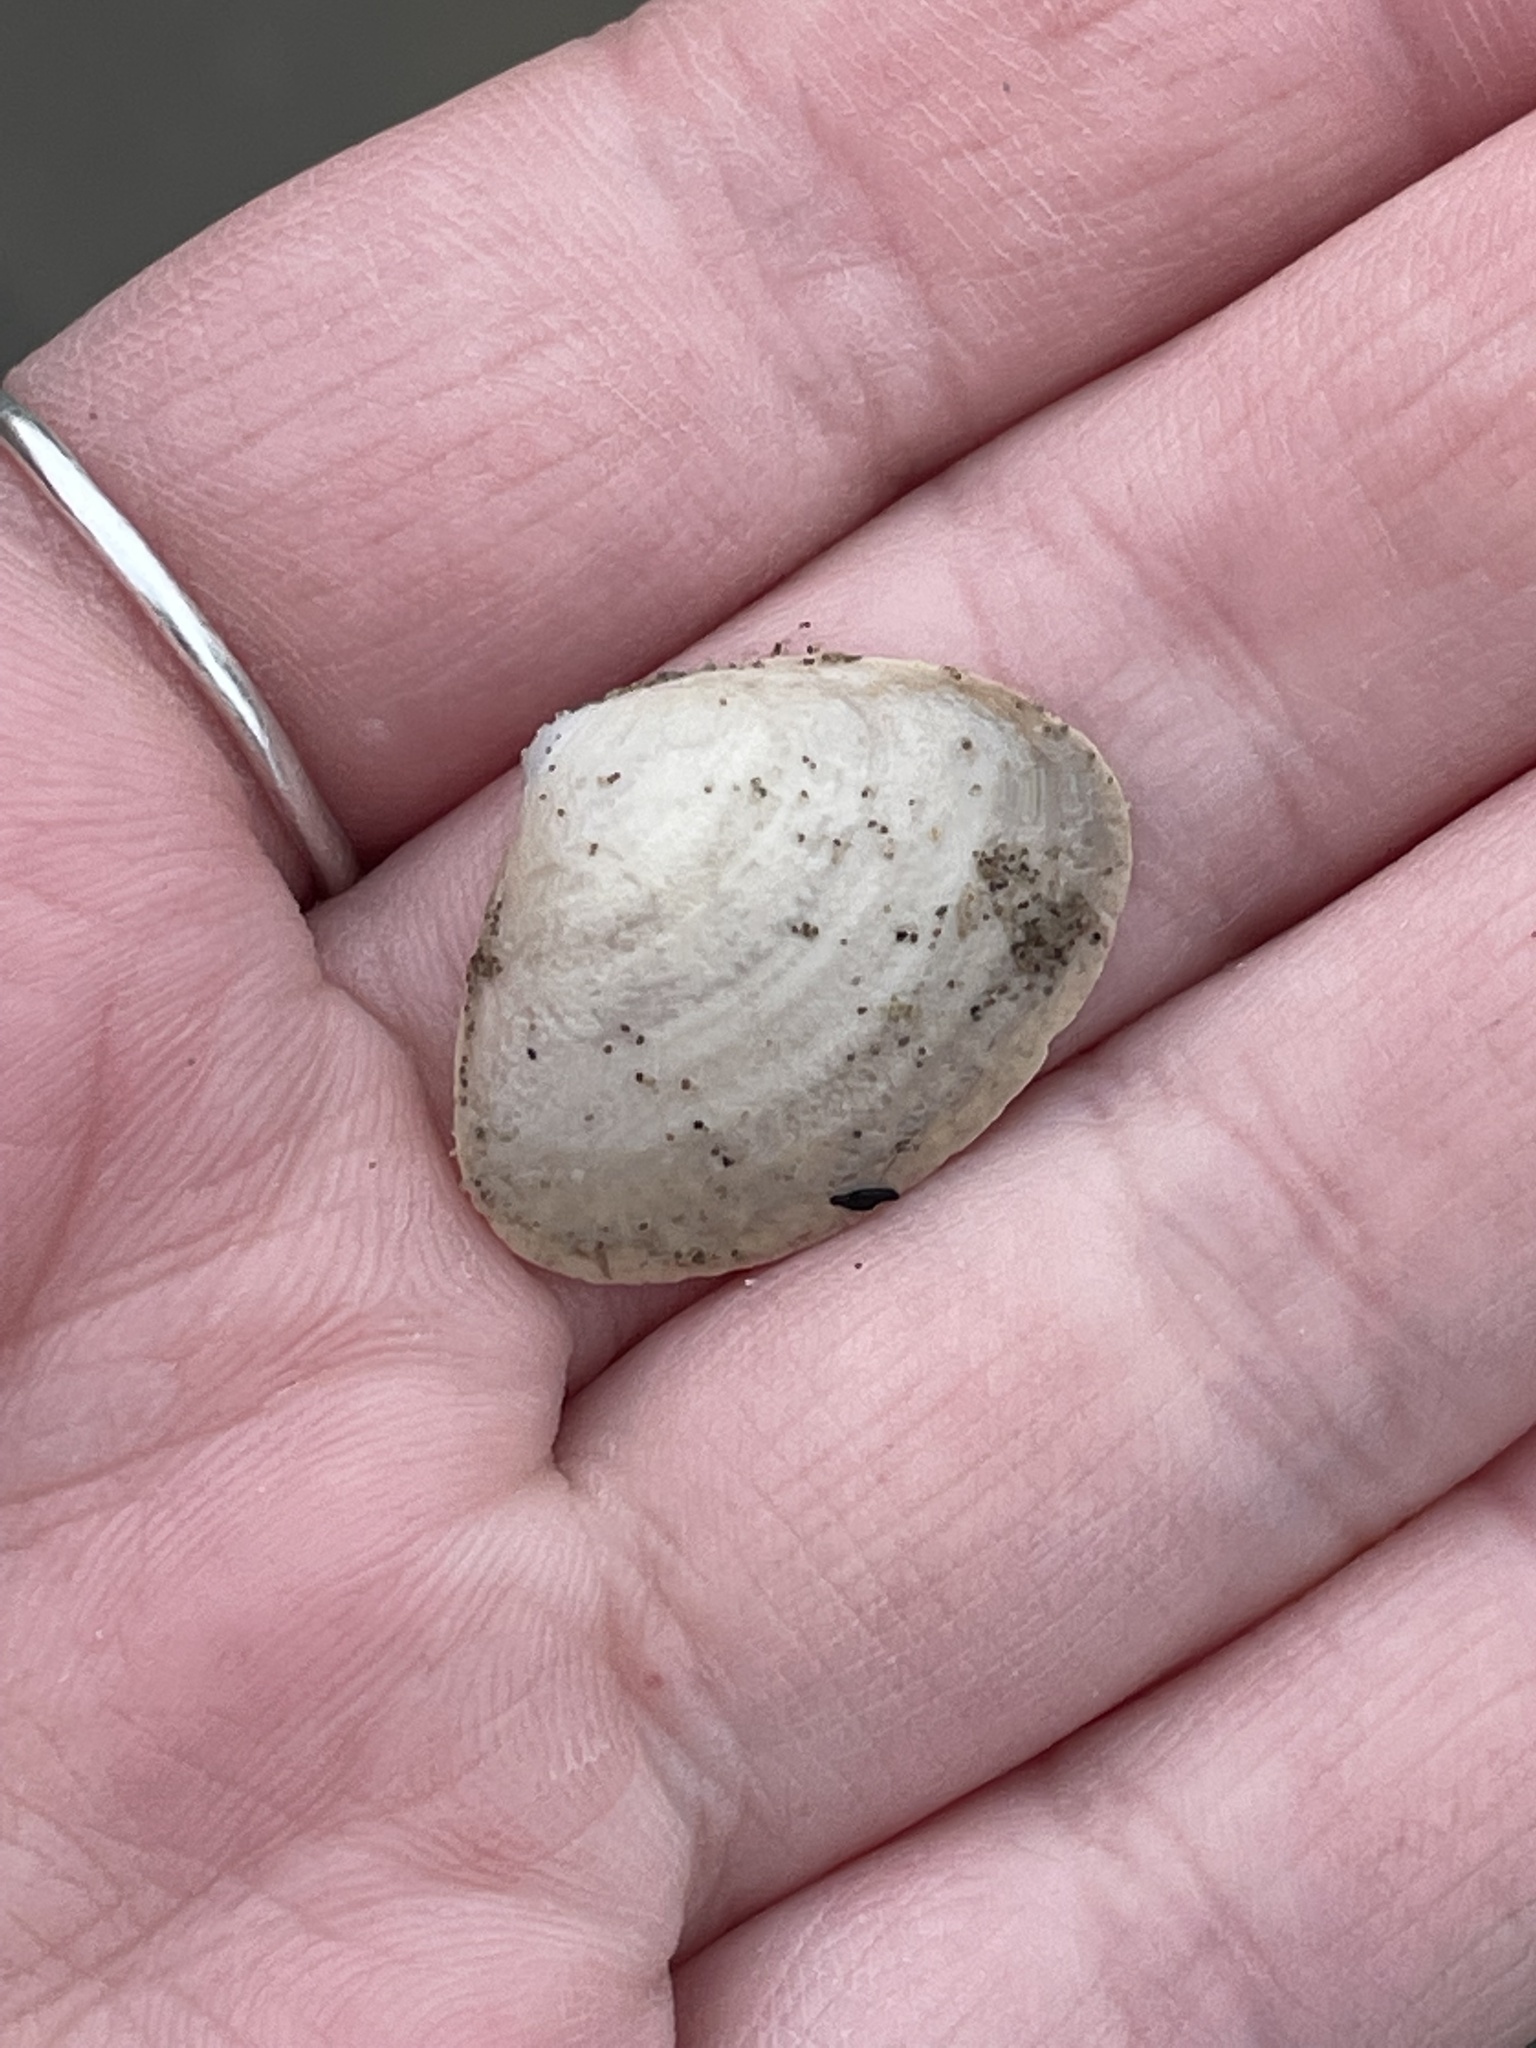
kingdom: Animalia
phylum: Mollusca
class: Bivalvia
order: Venerida
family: Mactridae
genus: Spisula
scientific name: Spisula solidissima
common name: Atlantic surf clam
